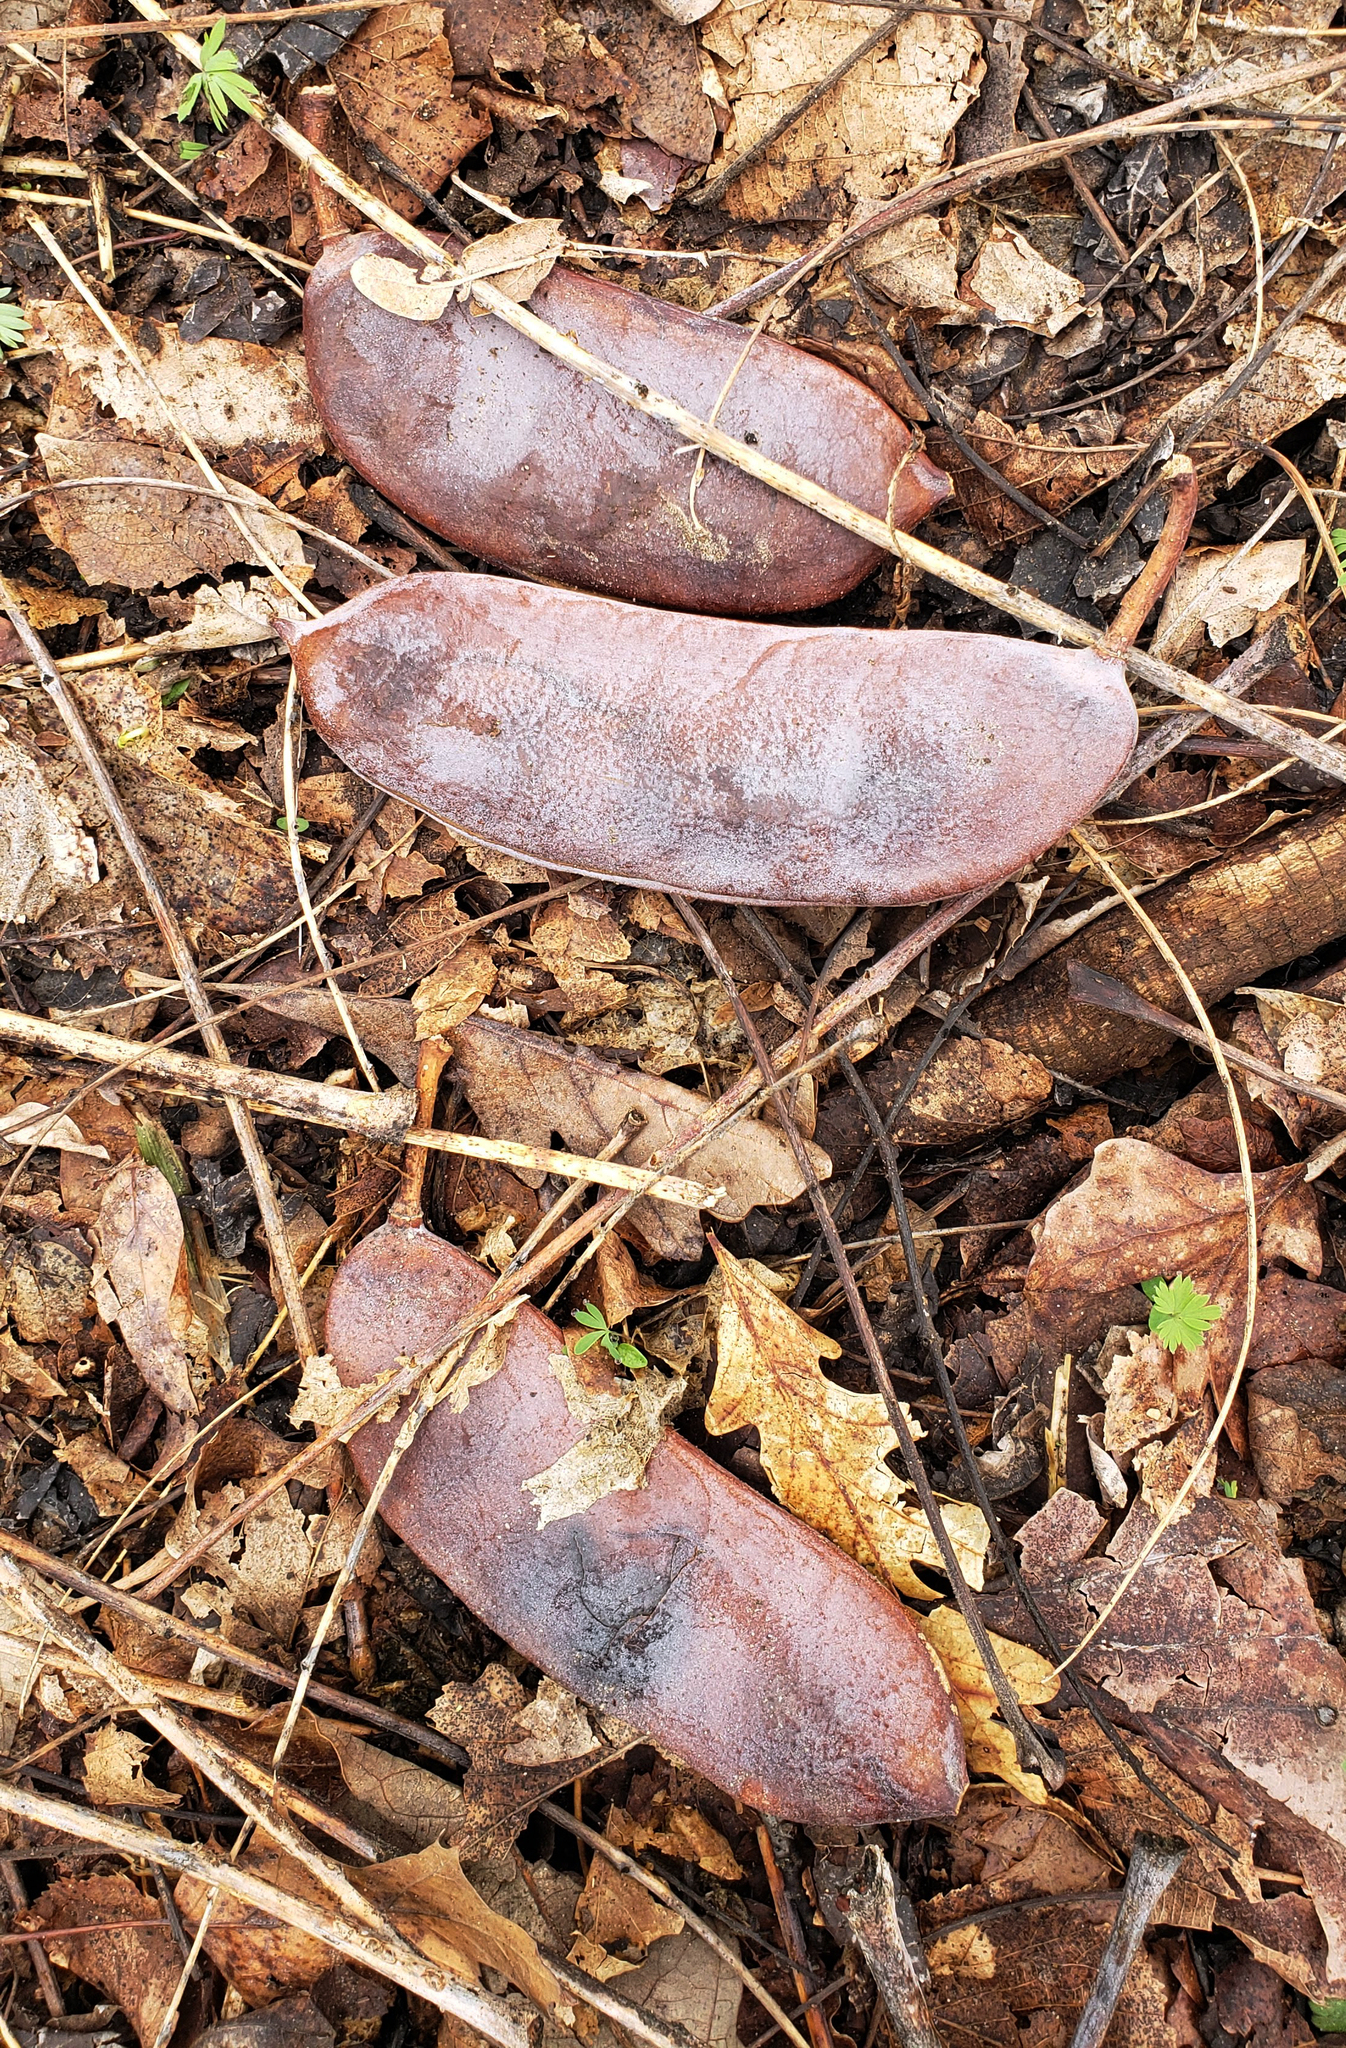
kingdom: Plantae
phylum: Tracheophyta
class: Magnoliopsida
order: Fabales
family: Fabaceae
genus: Gymnocladus
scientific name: Gymnocladus dioicus
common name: Kentucky coffee-tree
